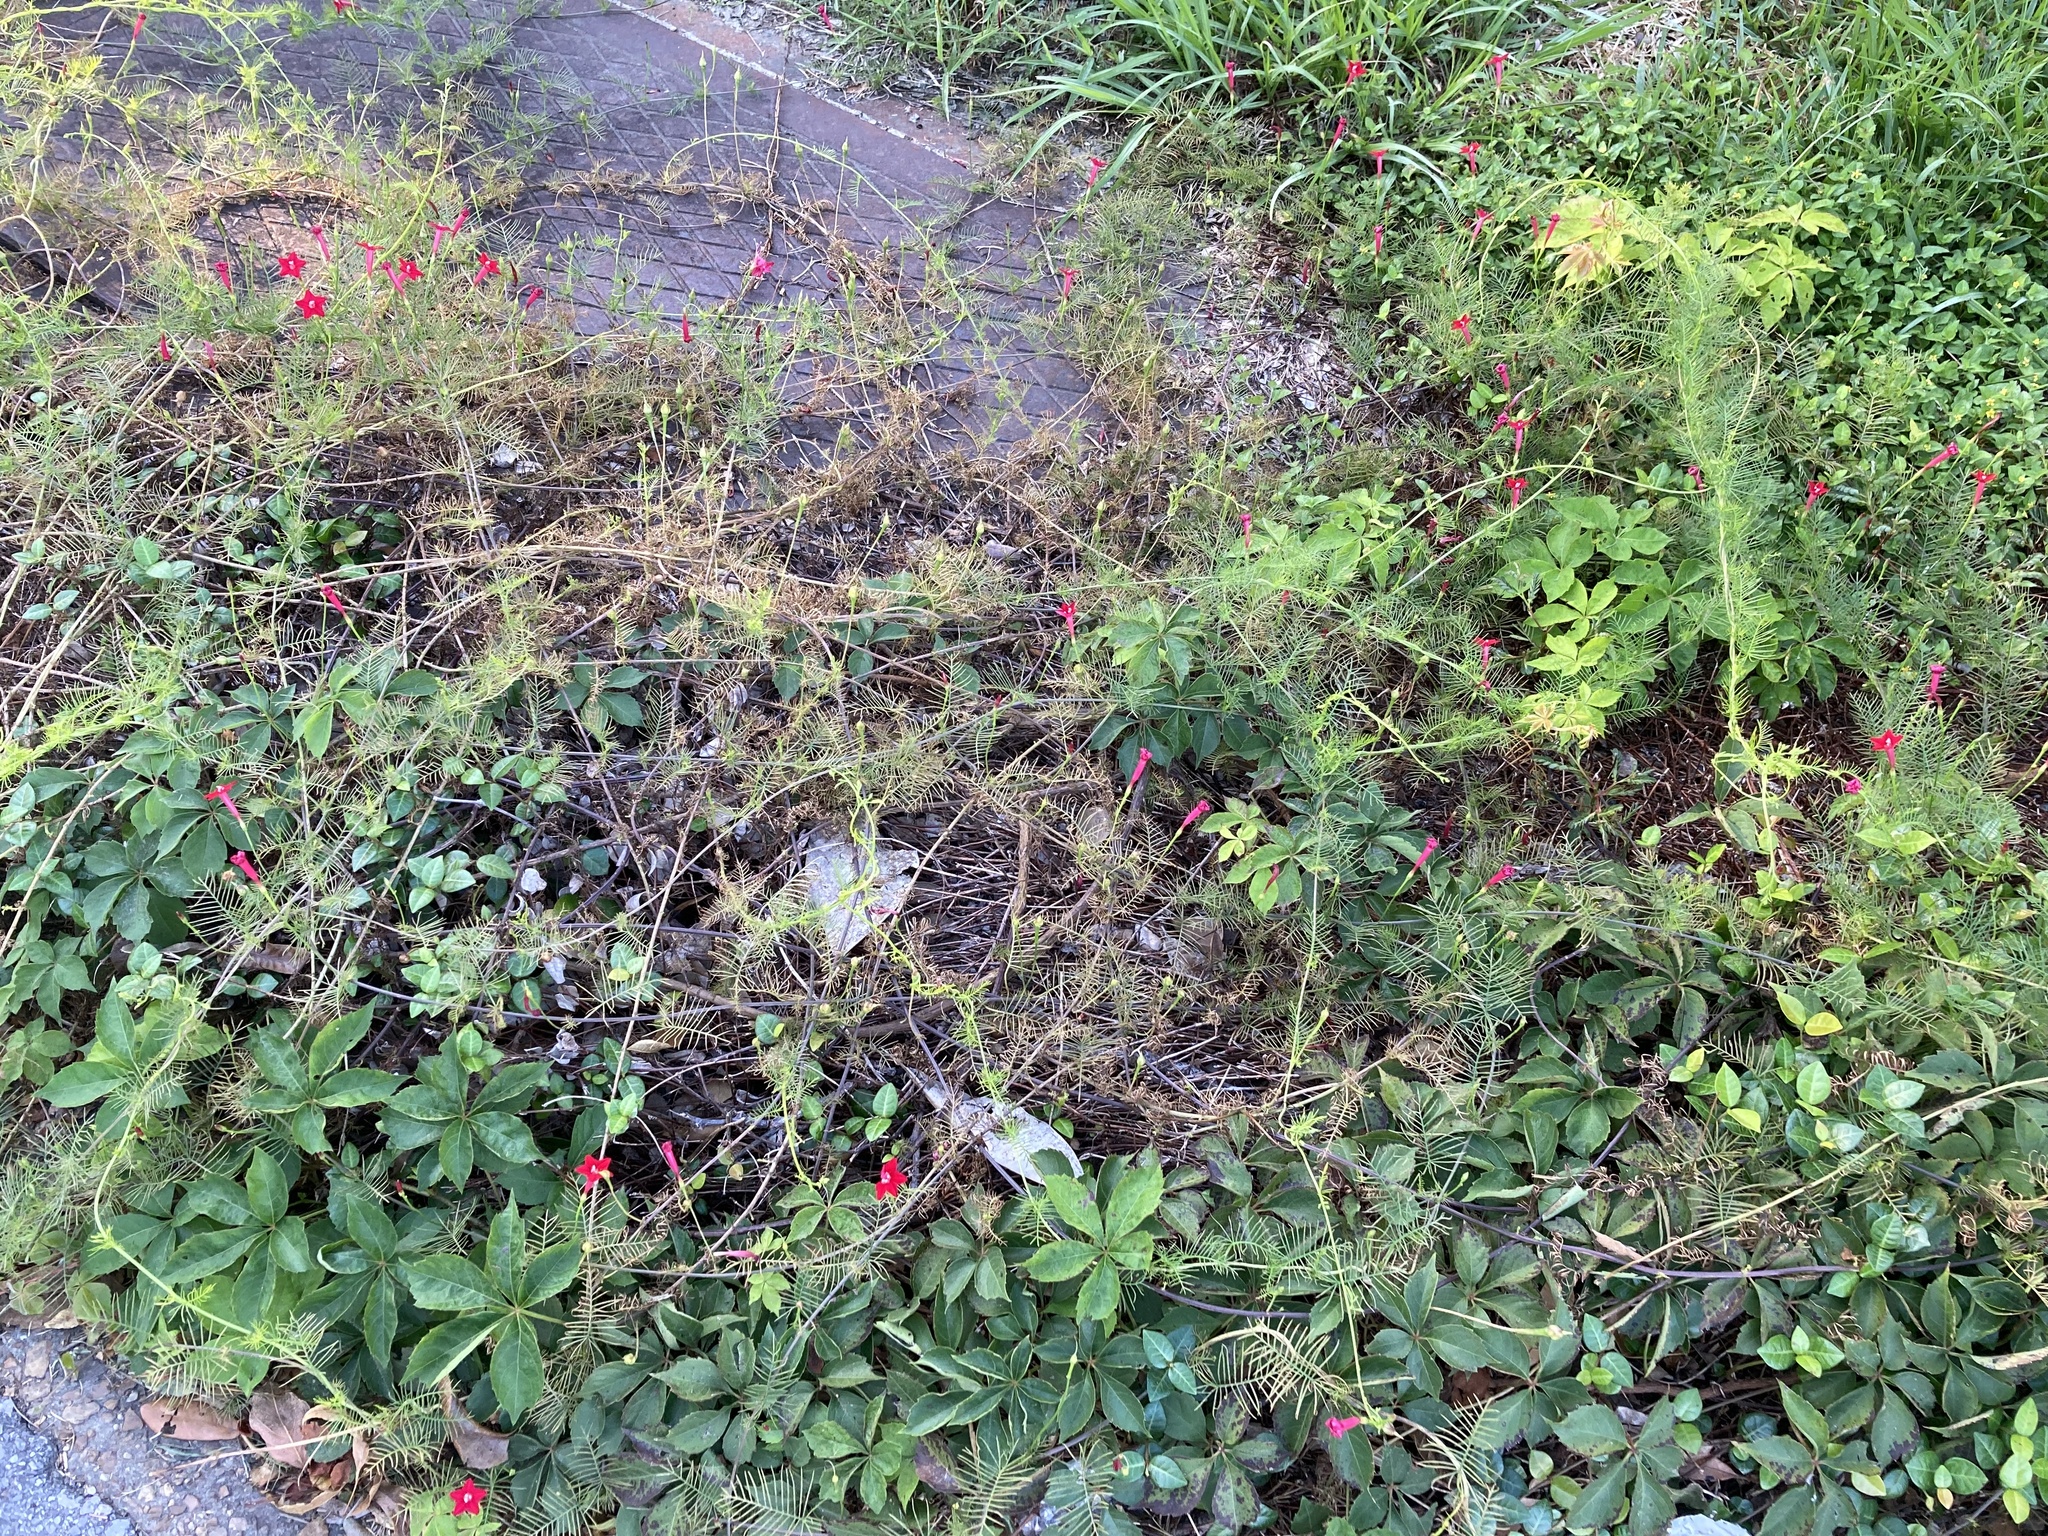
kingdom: Plantae
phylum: Tracheophyta
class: Magnoliopsida
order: Solanales
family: Convolvulaceae
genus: Ipomoea
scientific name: Ipomoea quamoclit
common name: Cypress vine
